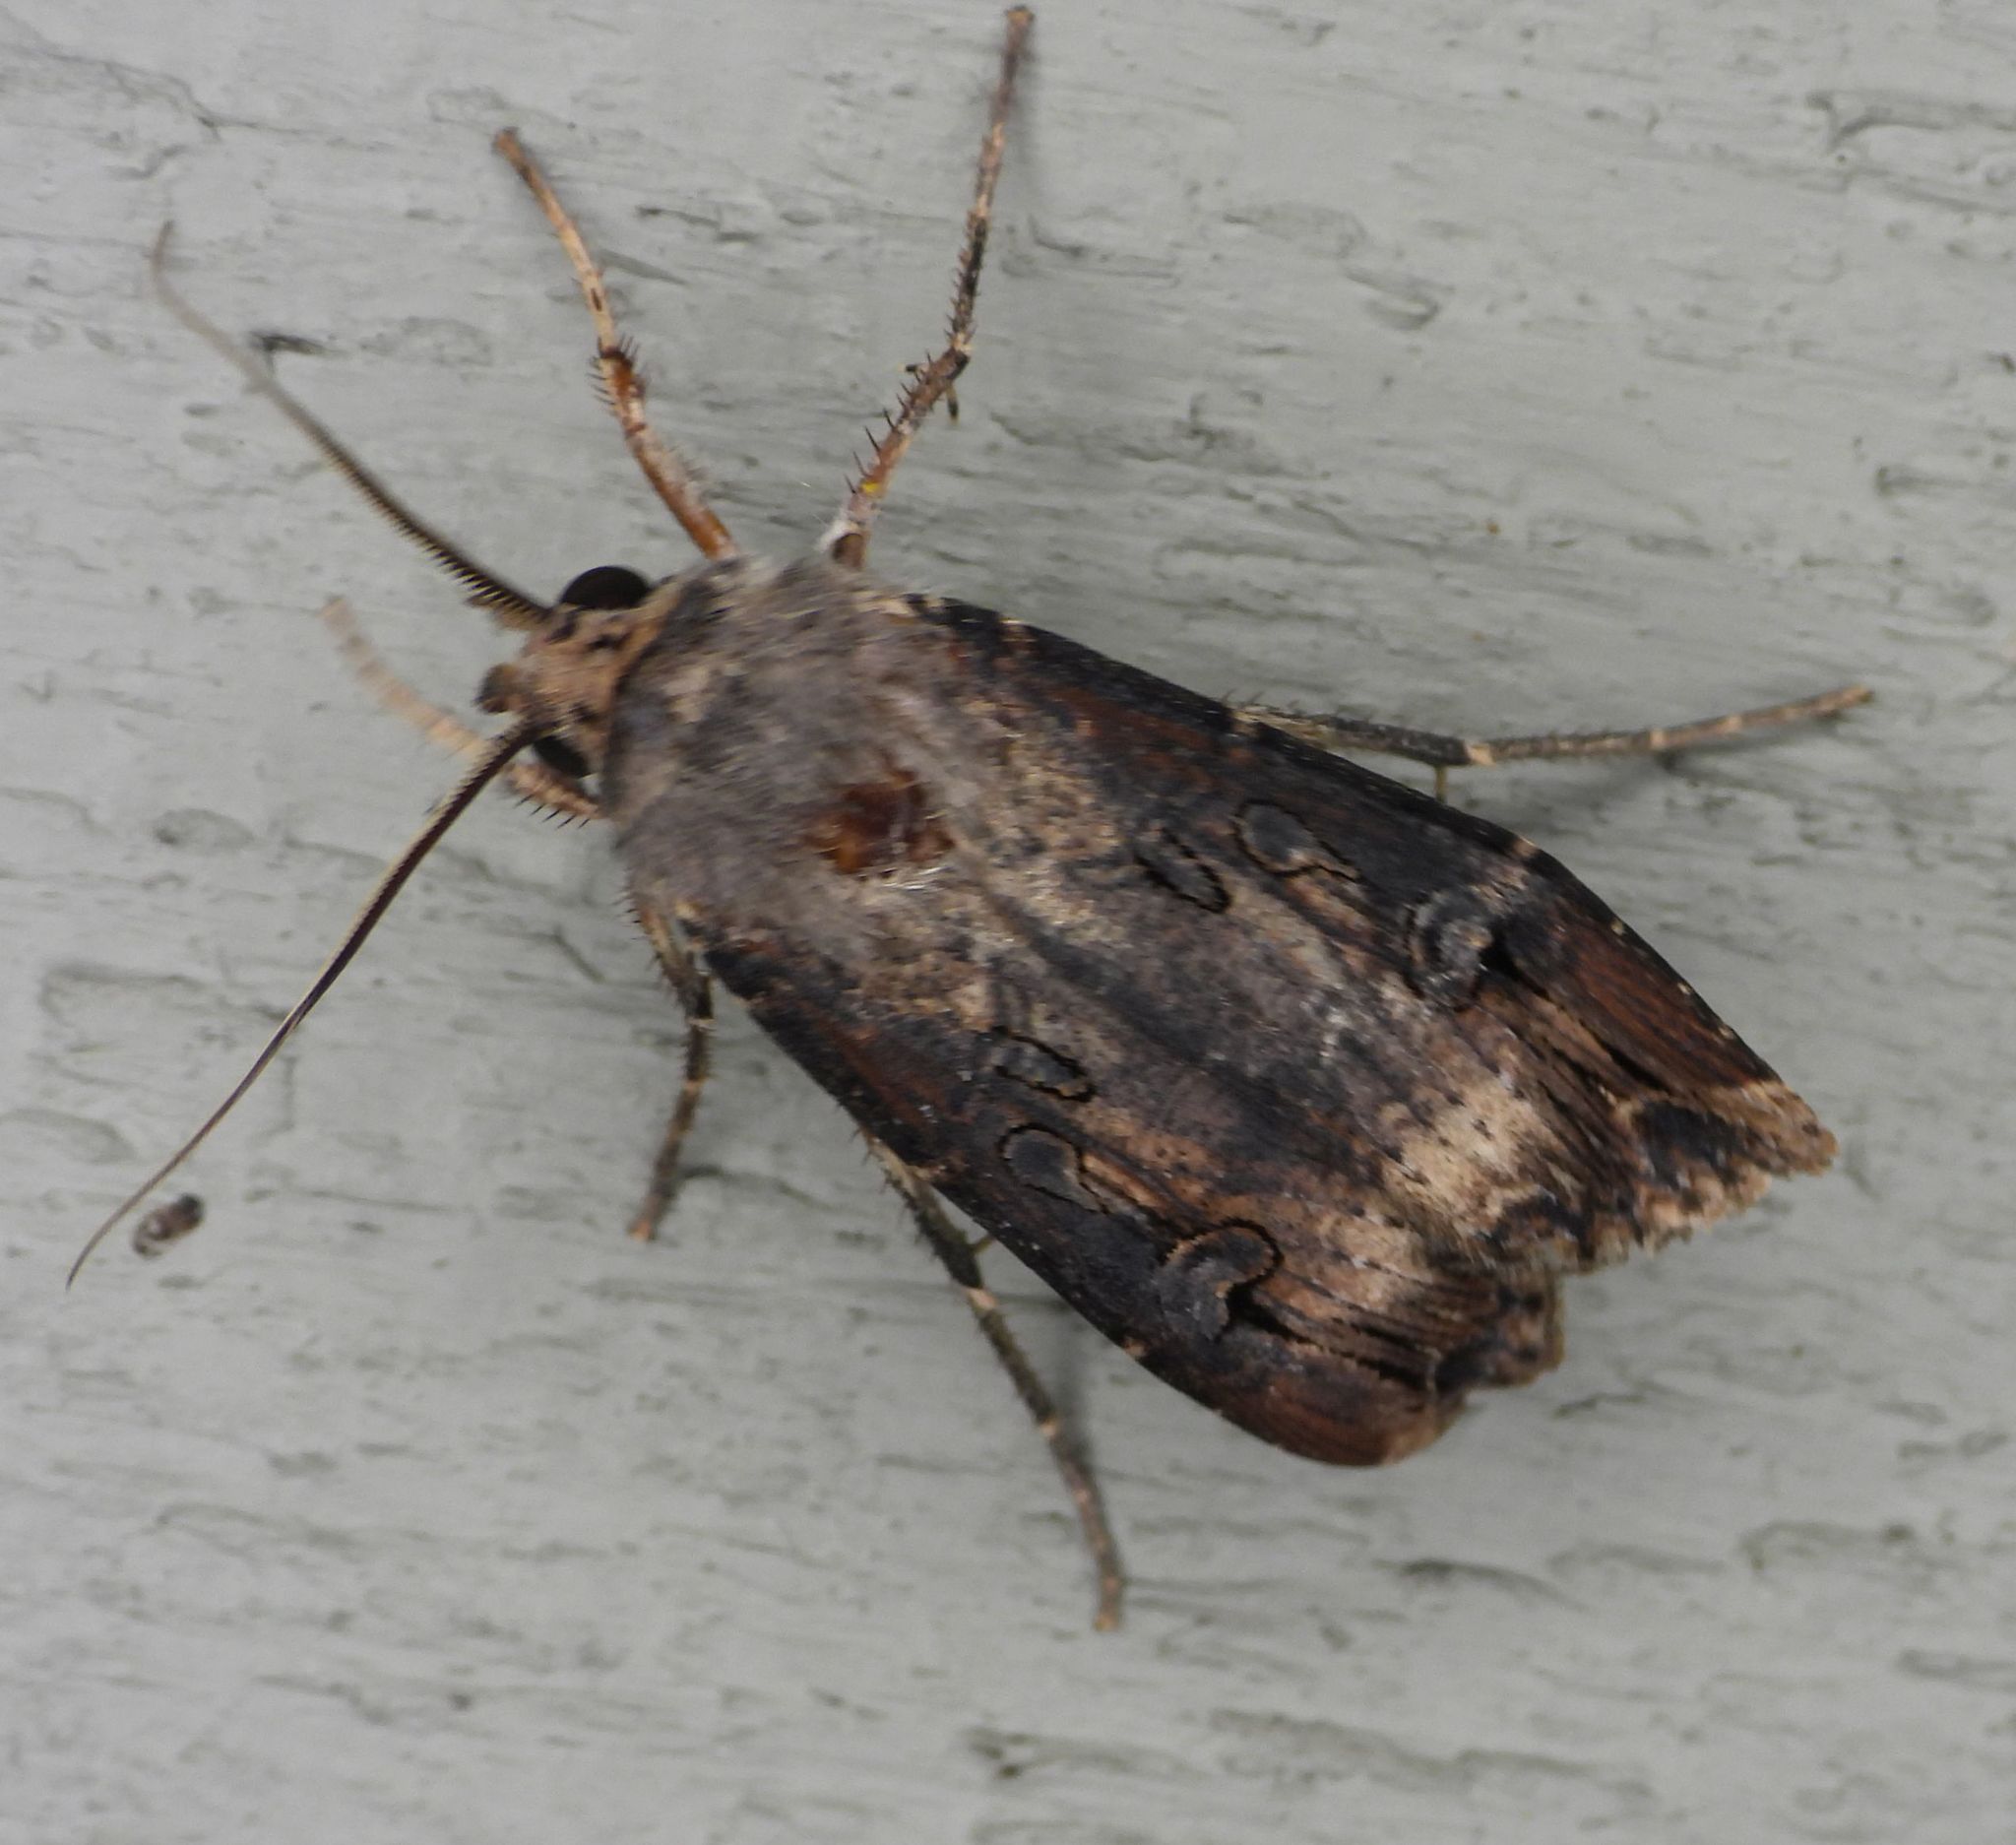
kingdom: Animalia
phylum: Arthropoda
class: Insecta
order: Lepidoptera
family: Noctuidae
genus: Agrotis
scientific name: Agrotis ipsilon
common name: Dark sword-grass
